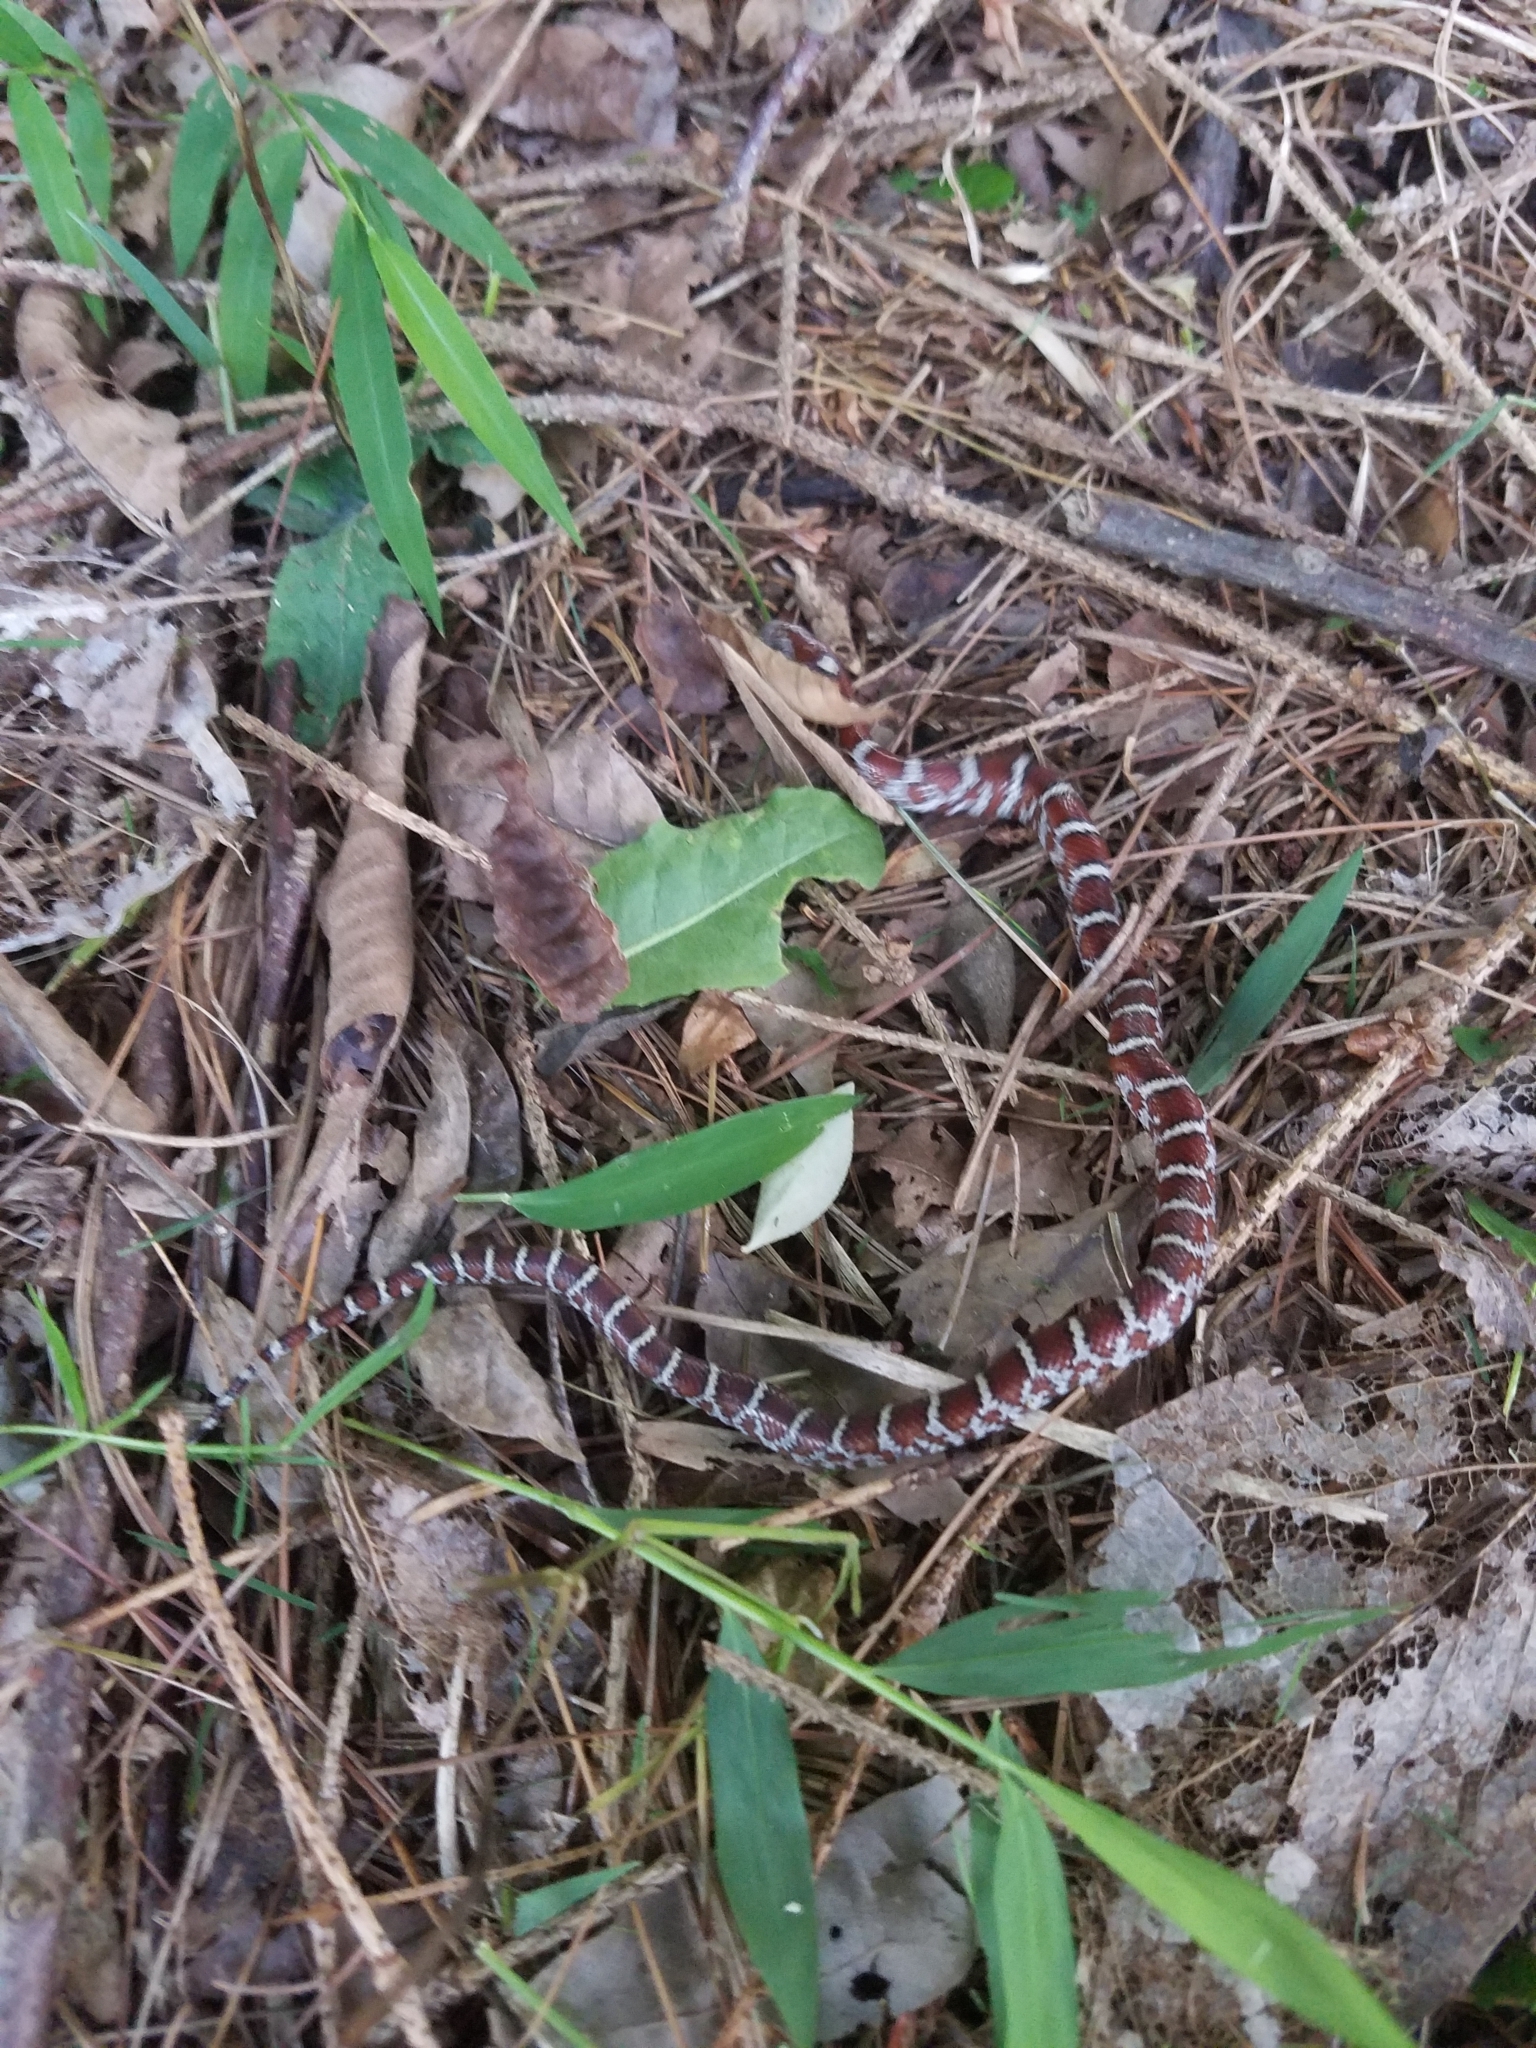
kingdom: Animalia
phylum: Chordata
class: Squamata
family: Colubridae
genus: Lampropeltis
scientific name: Lampropeltis triangulum
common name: Eastern milksnake
